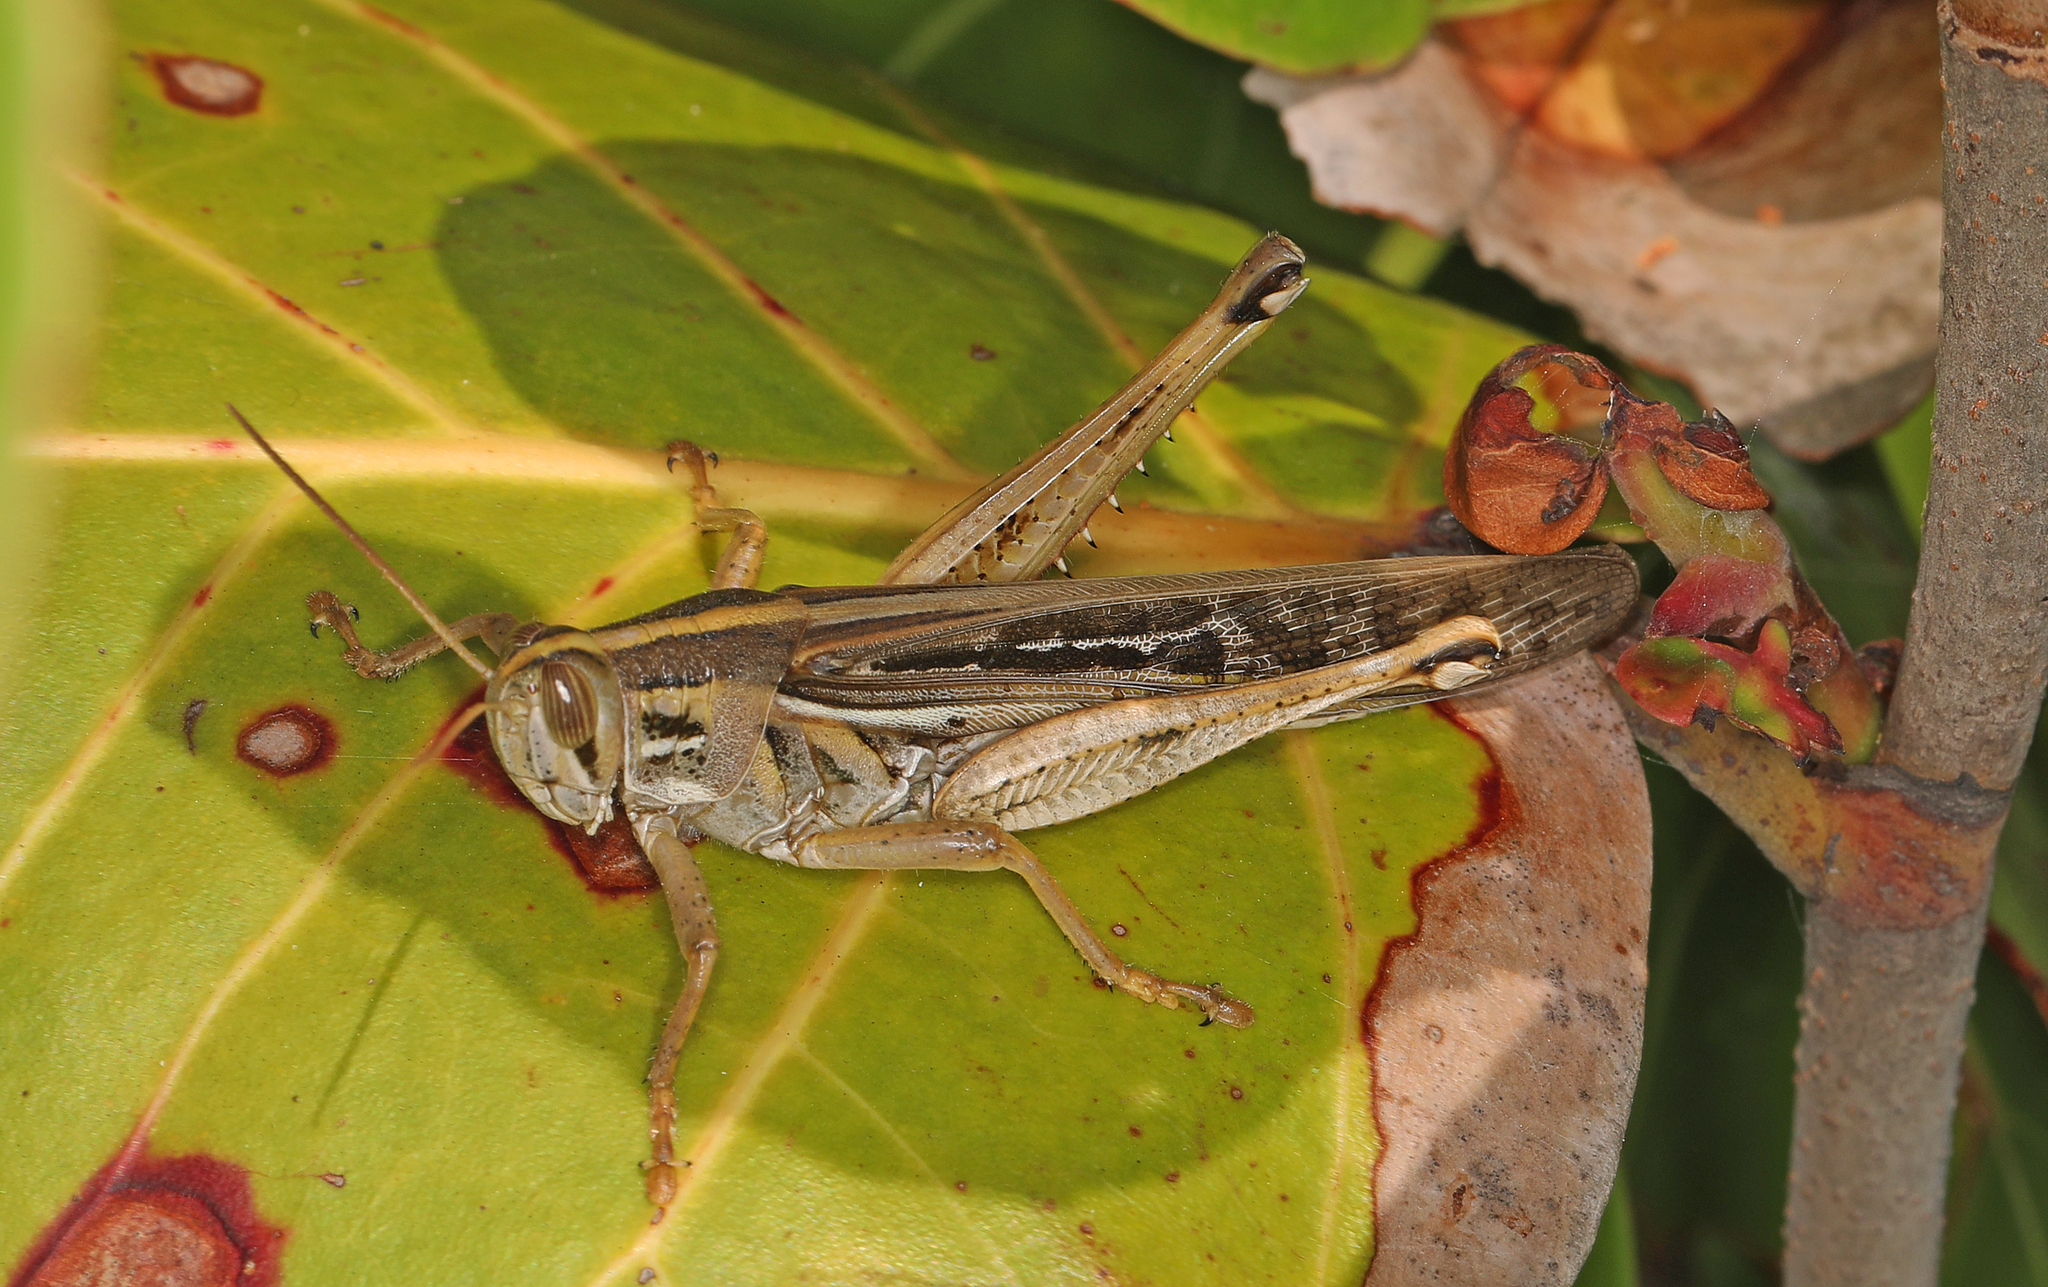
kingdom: Animalia
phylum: Arthropoda
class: Insecta
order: Orthoptera
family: Acrididae
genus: Schistocerca
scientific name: Schistocerca serialis
